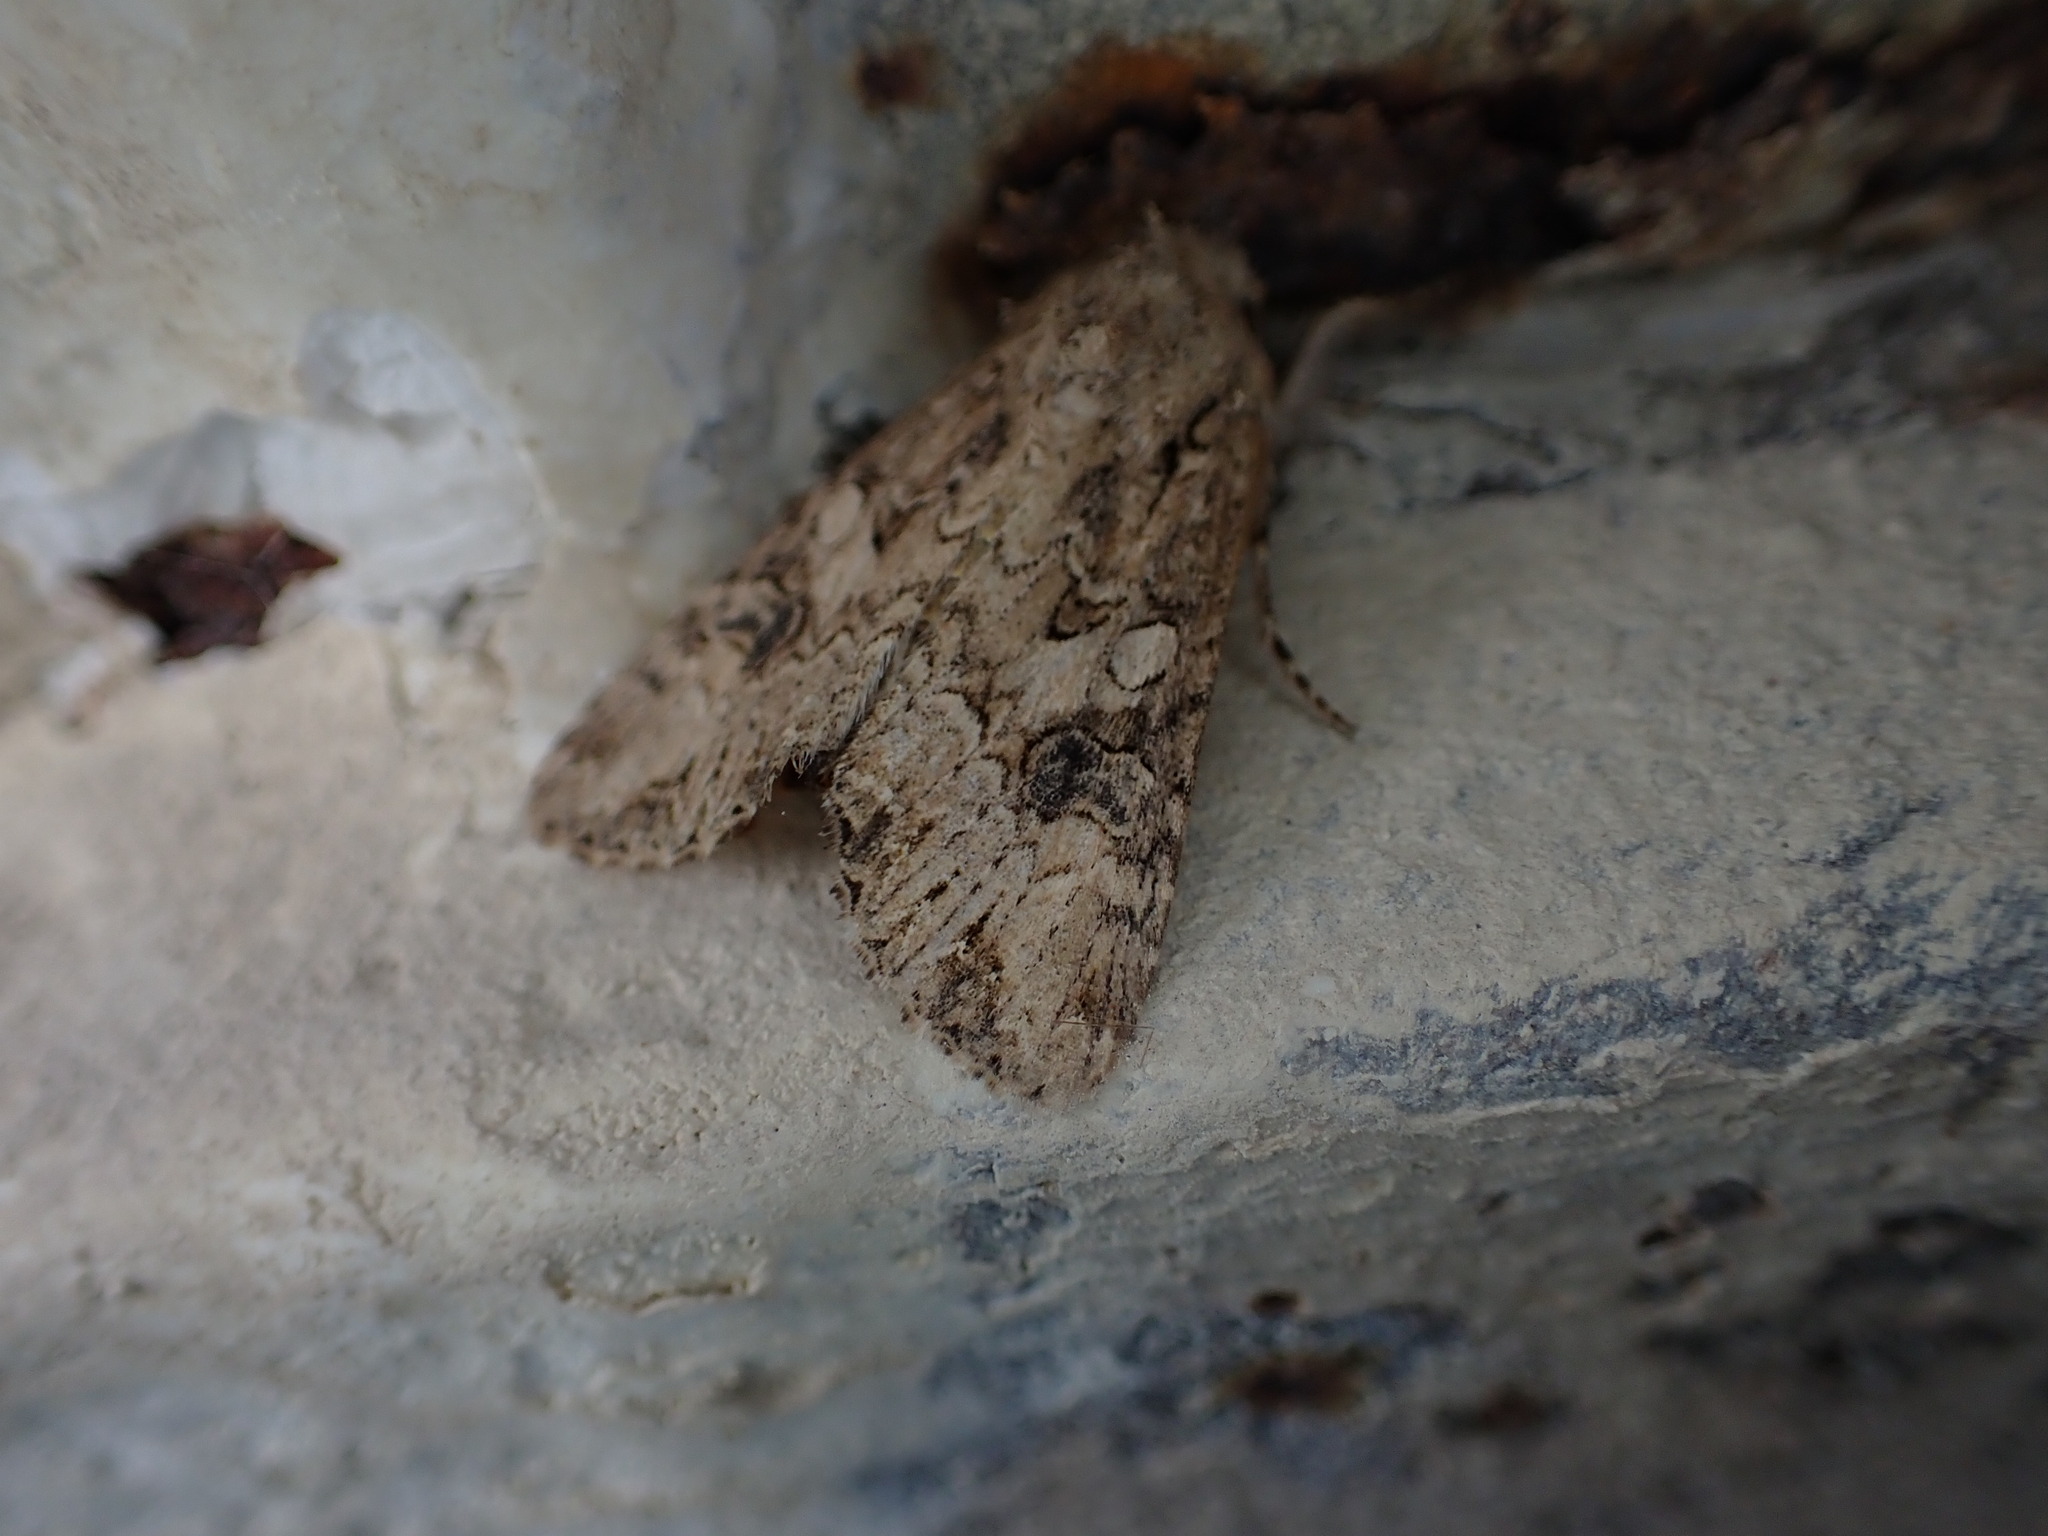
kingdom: Animalia
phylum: Arthropoda
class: Insecta
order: Lepidoptera
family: Noctuidae
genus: Anarta
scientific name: Anarta trifolii
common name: Clover cutworm moth
